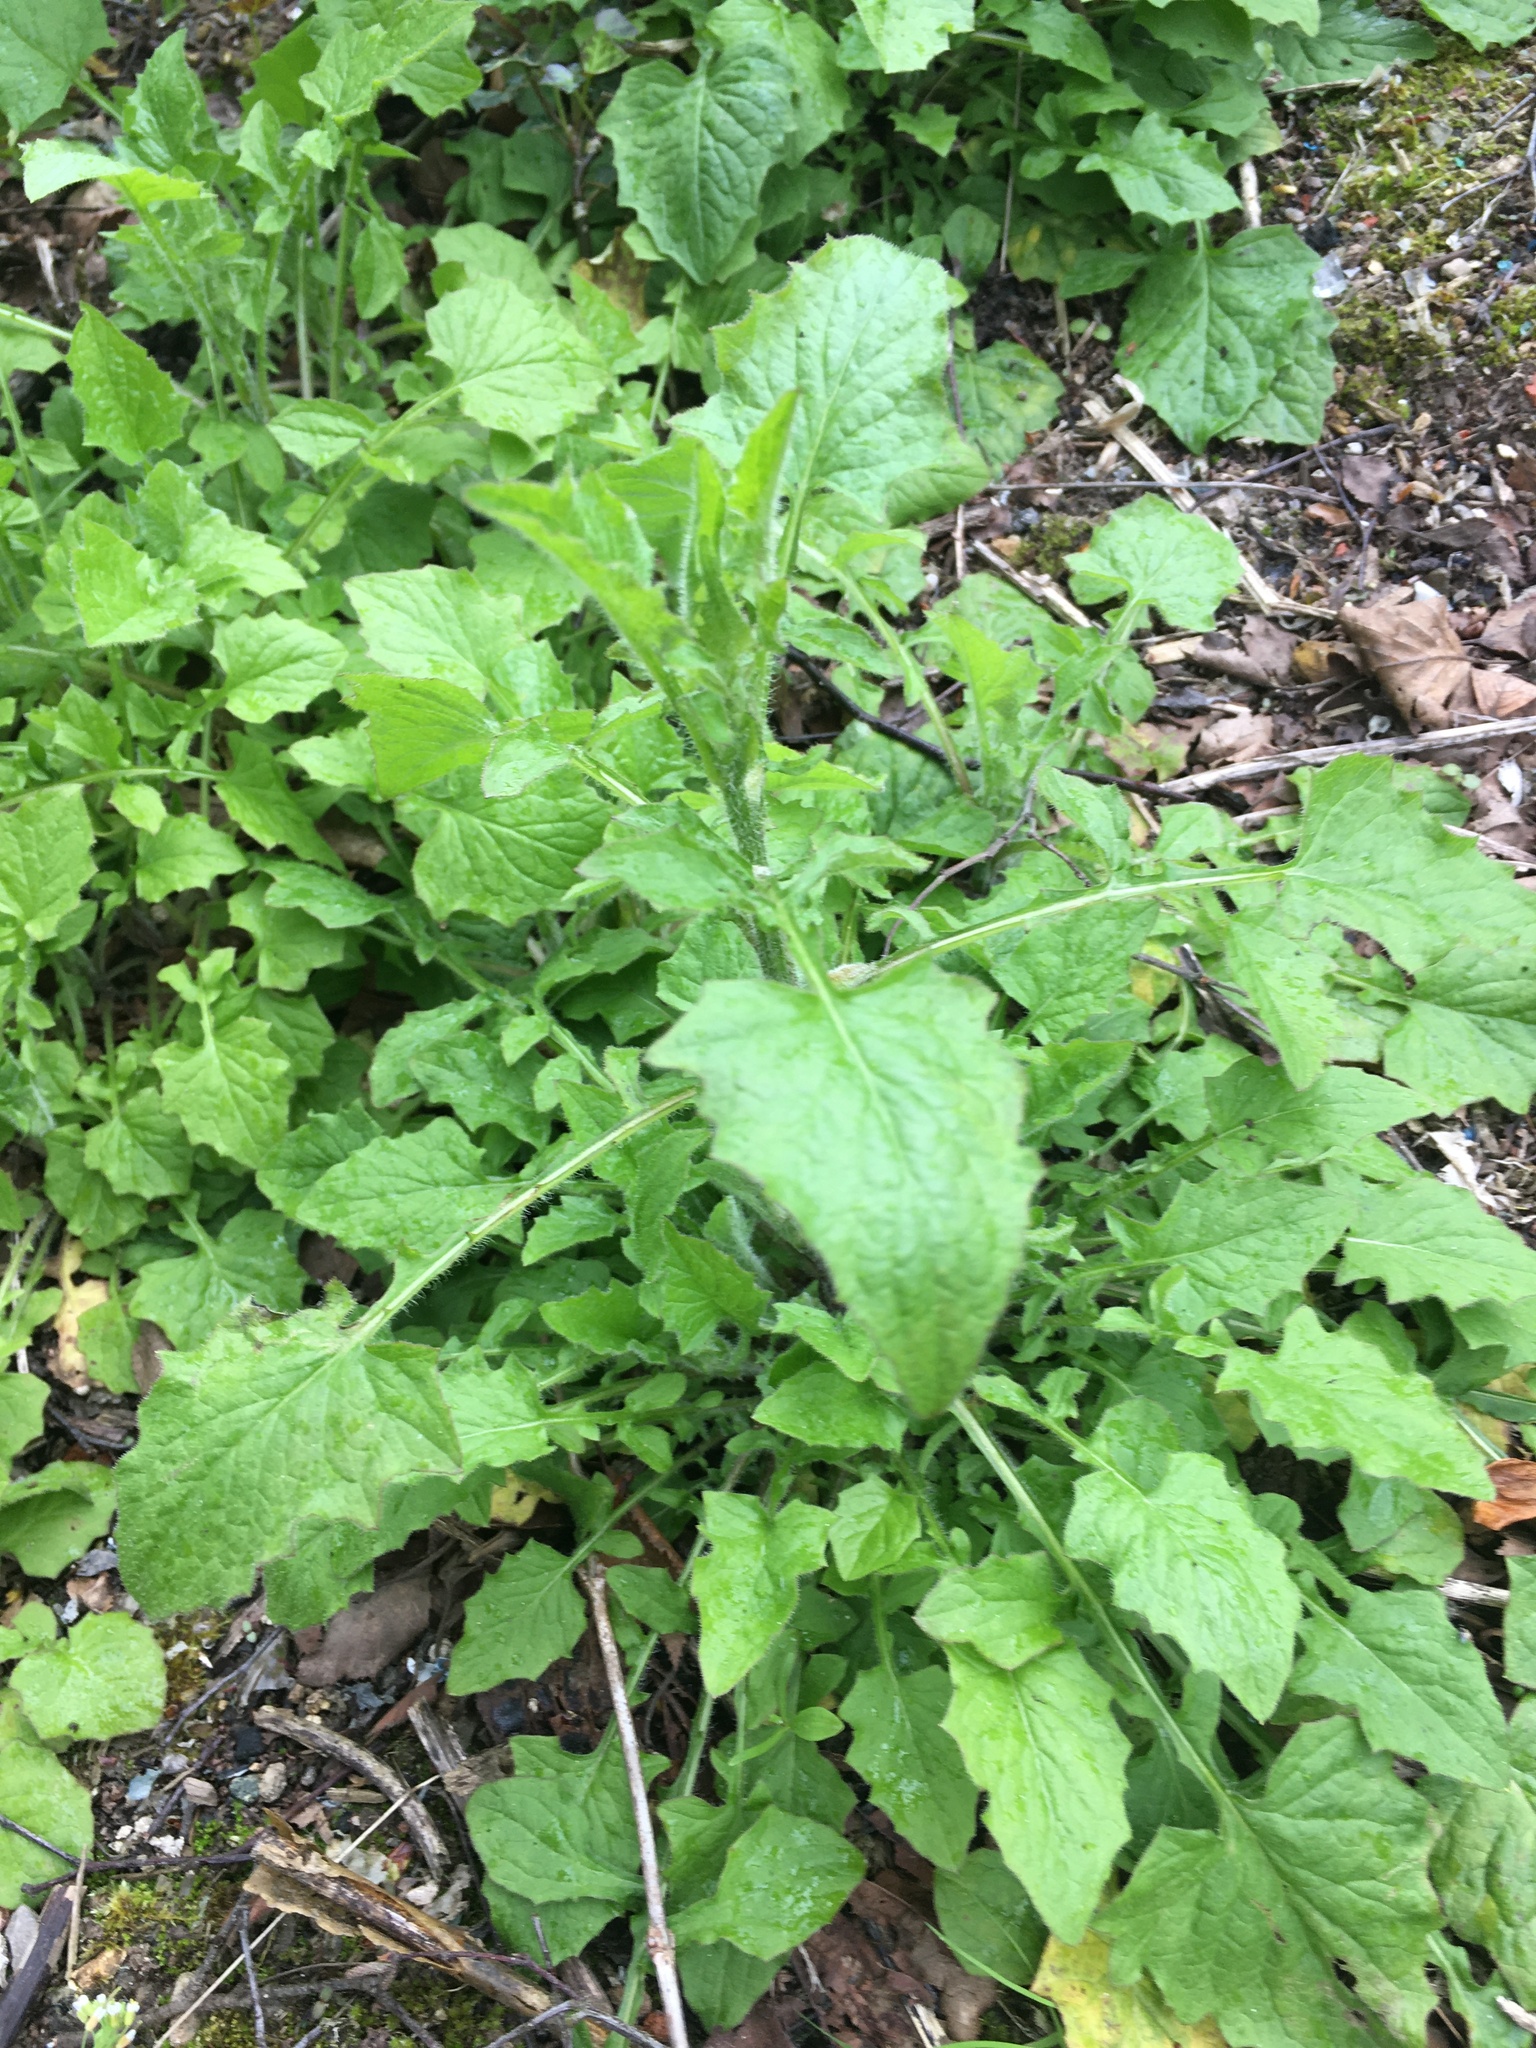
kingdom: Plantae
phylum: Tracheophyta
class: Magnoliopsida
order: Asterales
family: Asteraceae
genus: Lapsana
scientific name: Lapsana communis
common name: Nipplewort
